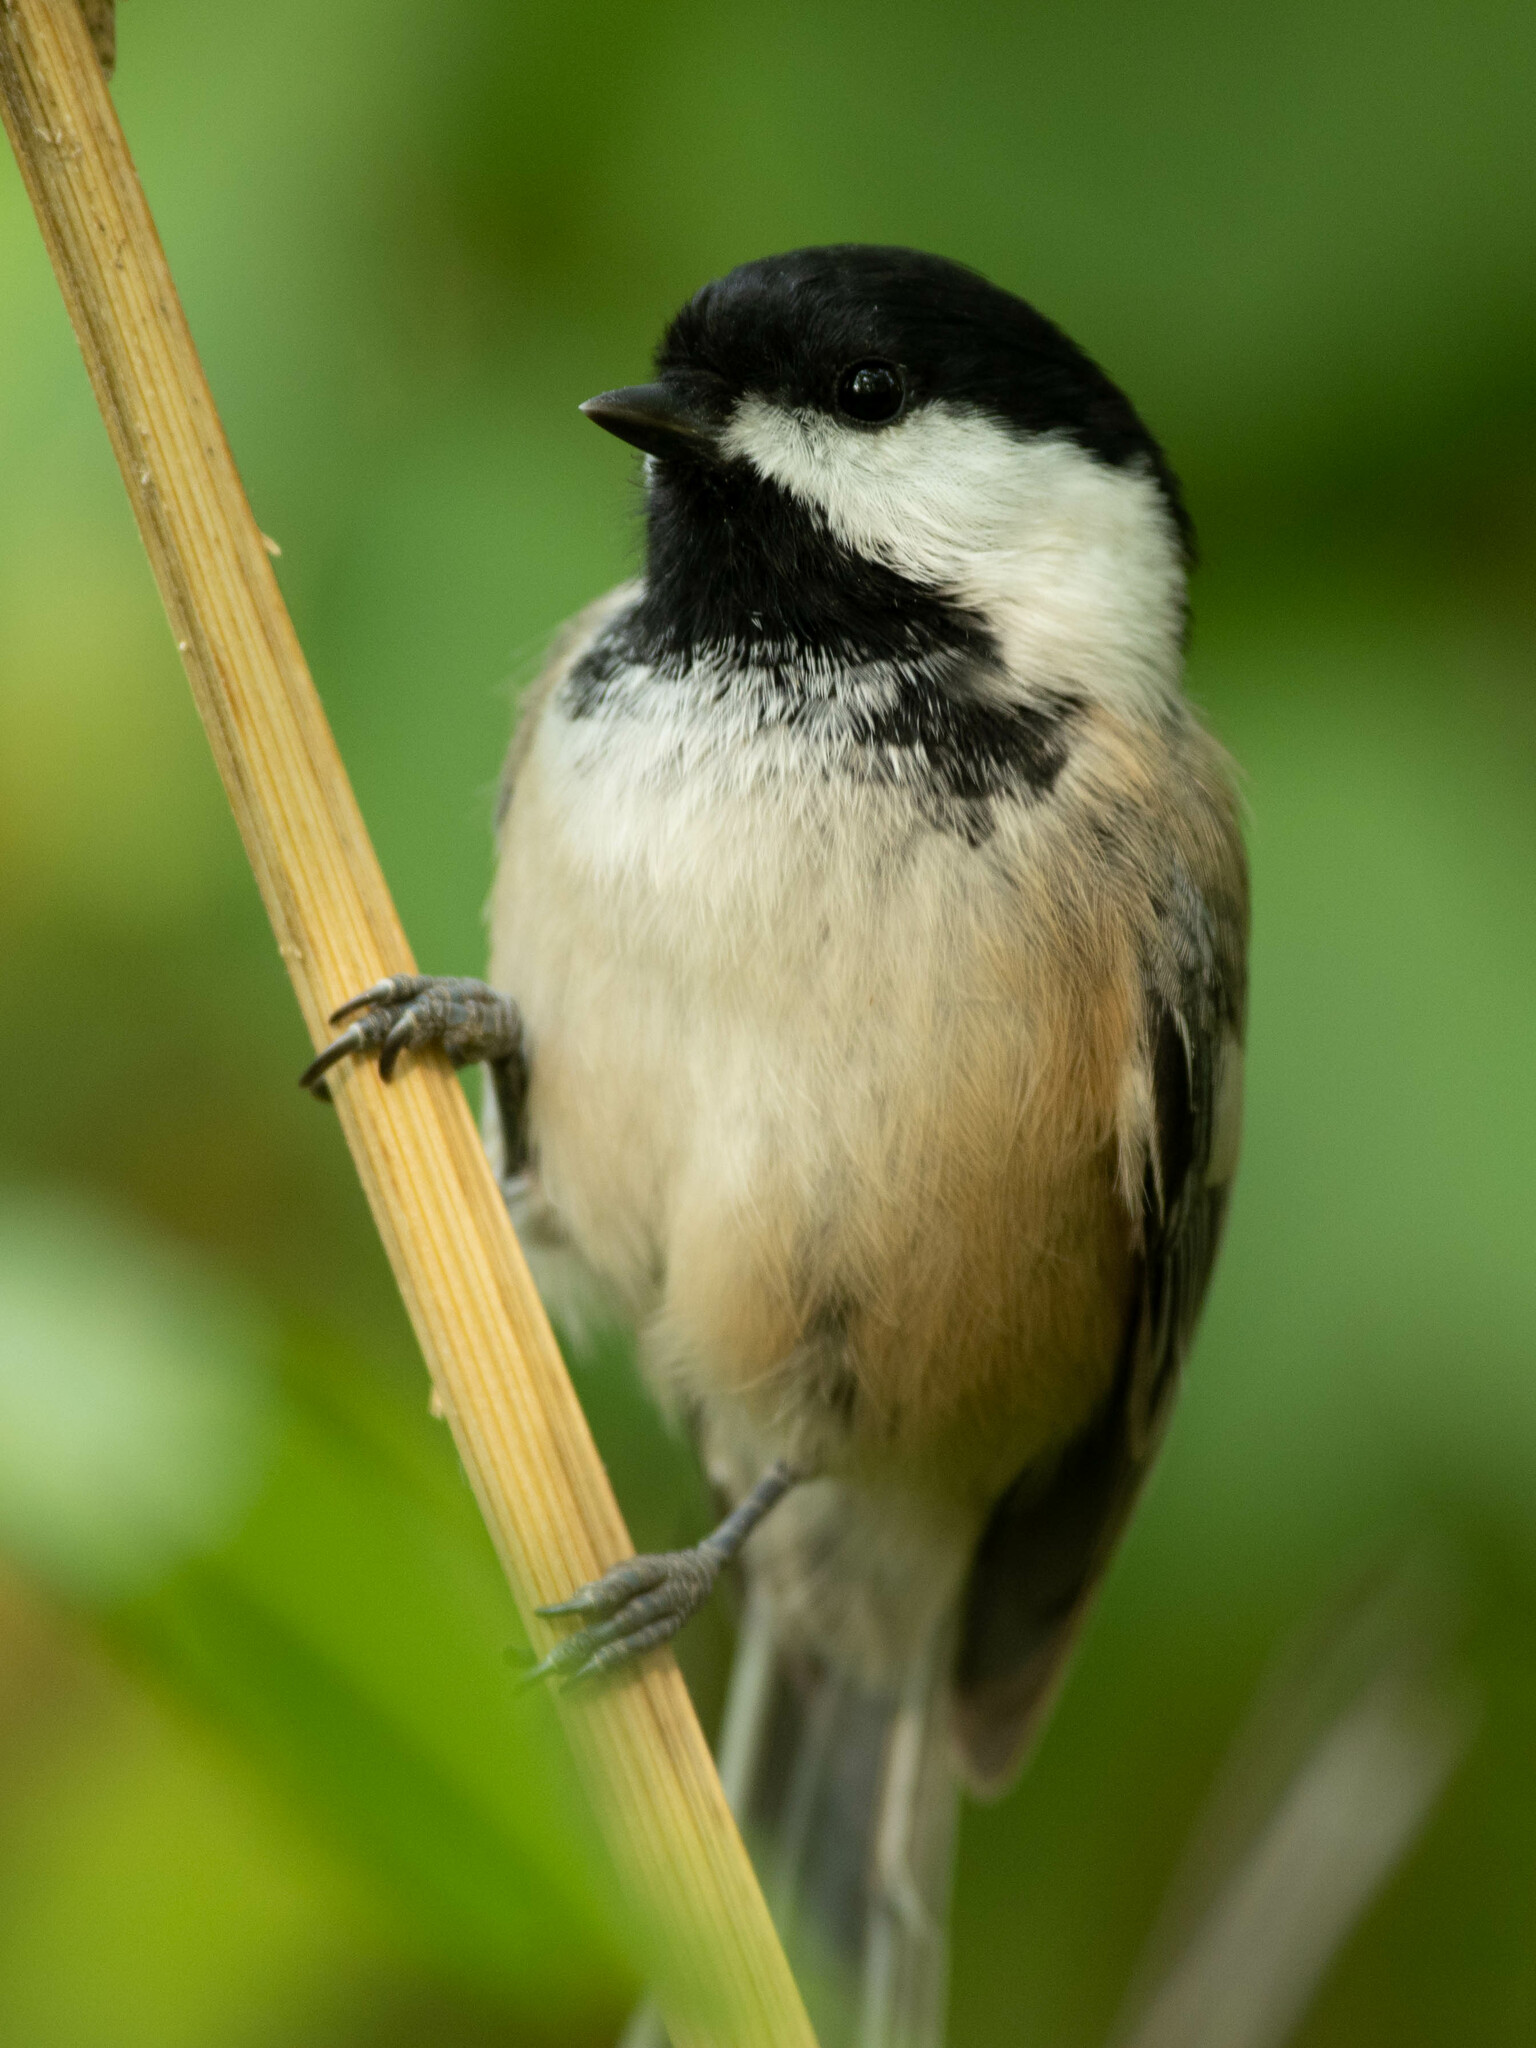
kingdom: Animalia
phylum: Chordata
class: Aves
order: Passeriformes
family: Paridae
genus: Poecile
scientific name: Poecile atricapillus
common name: Black-capped chickadee
